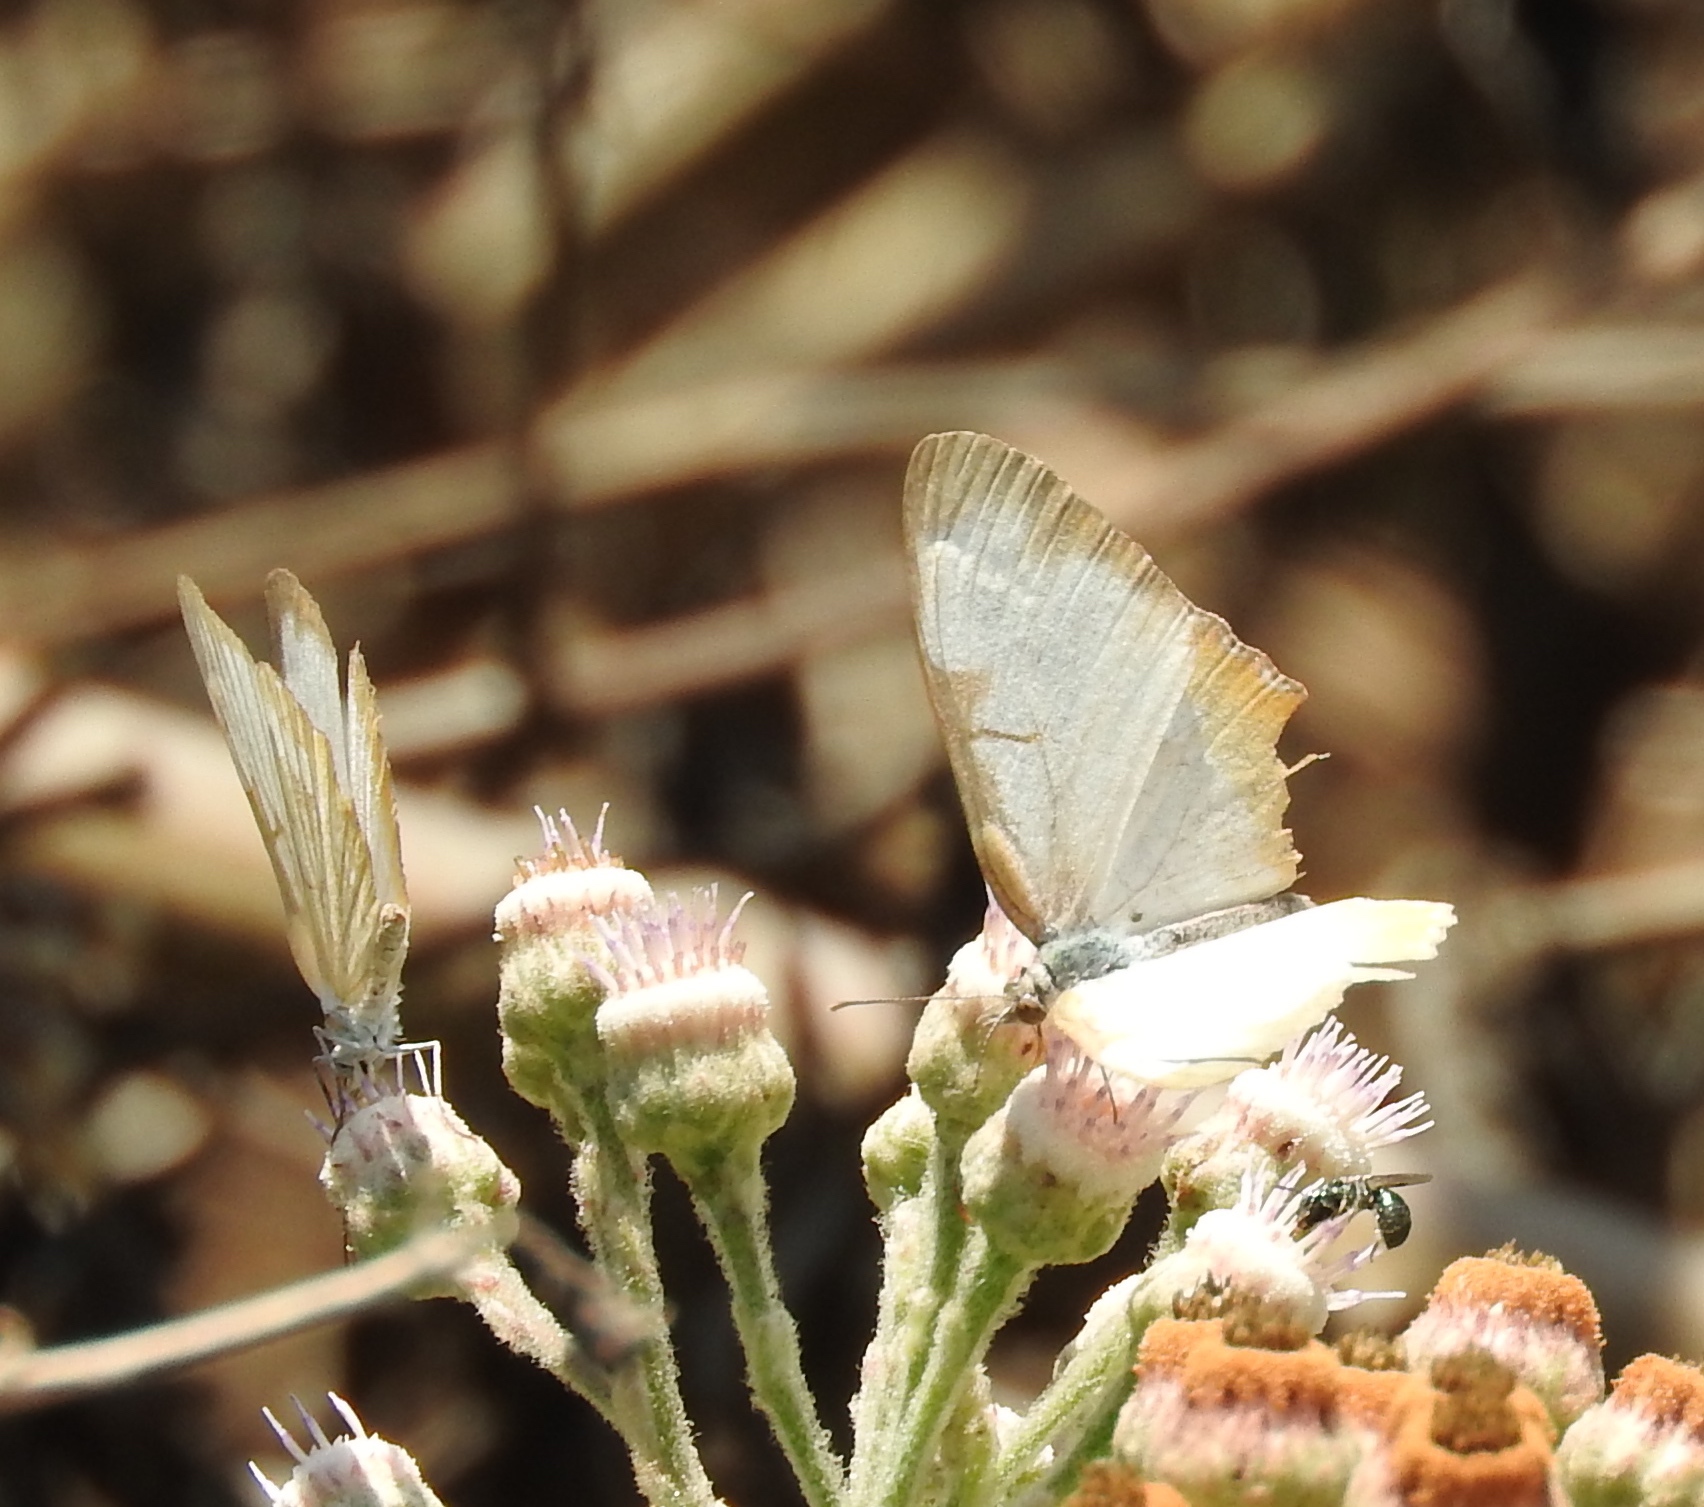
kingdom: Animalia
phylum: Arthropoda
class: Insecta
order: Lepidoptera
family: Nymphalidae
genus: Mestra
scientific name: Mestra amymone
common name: Common mestra
